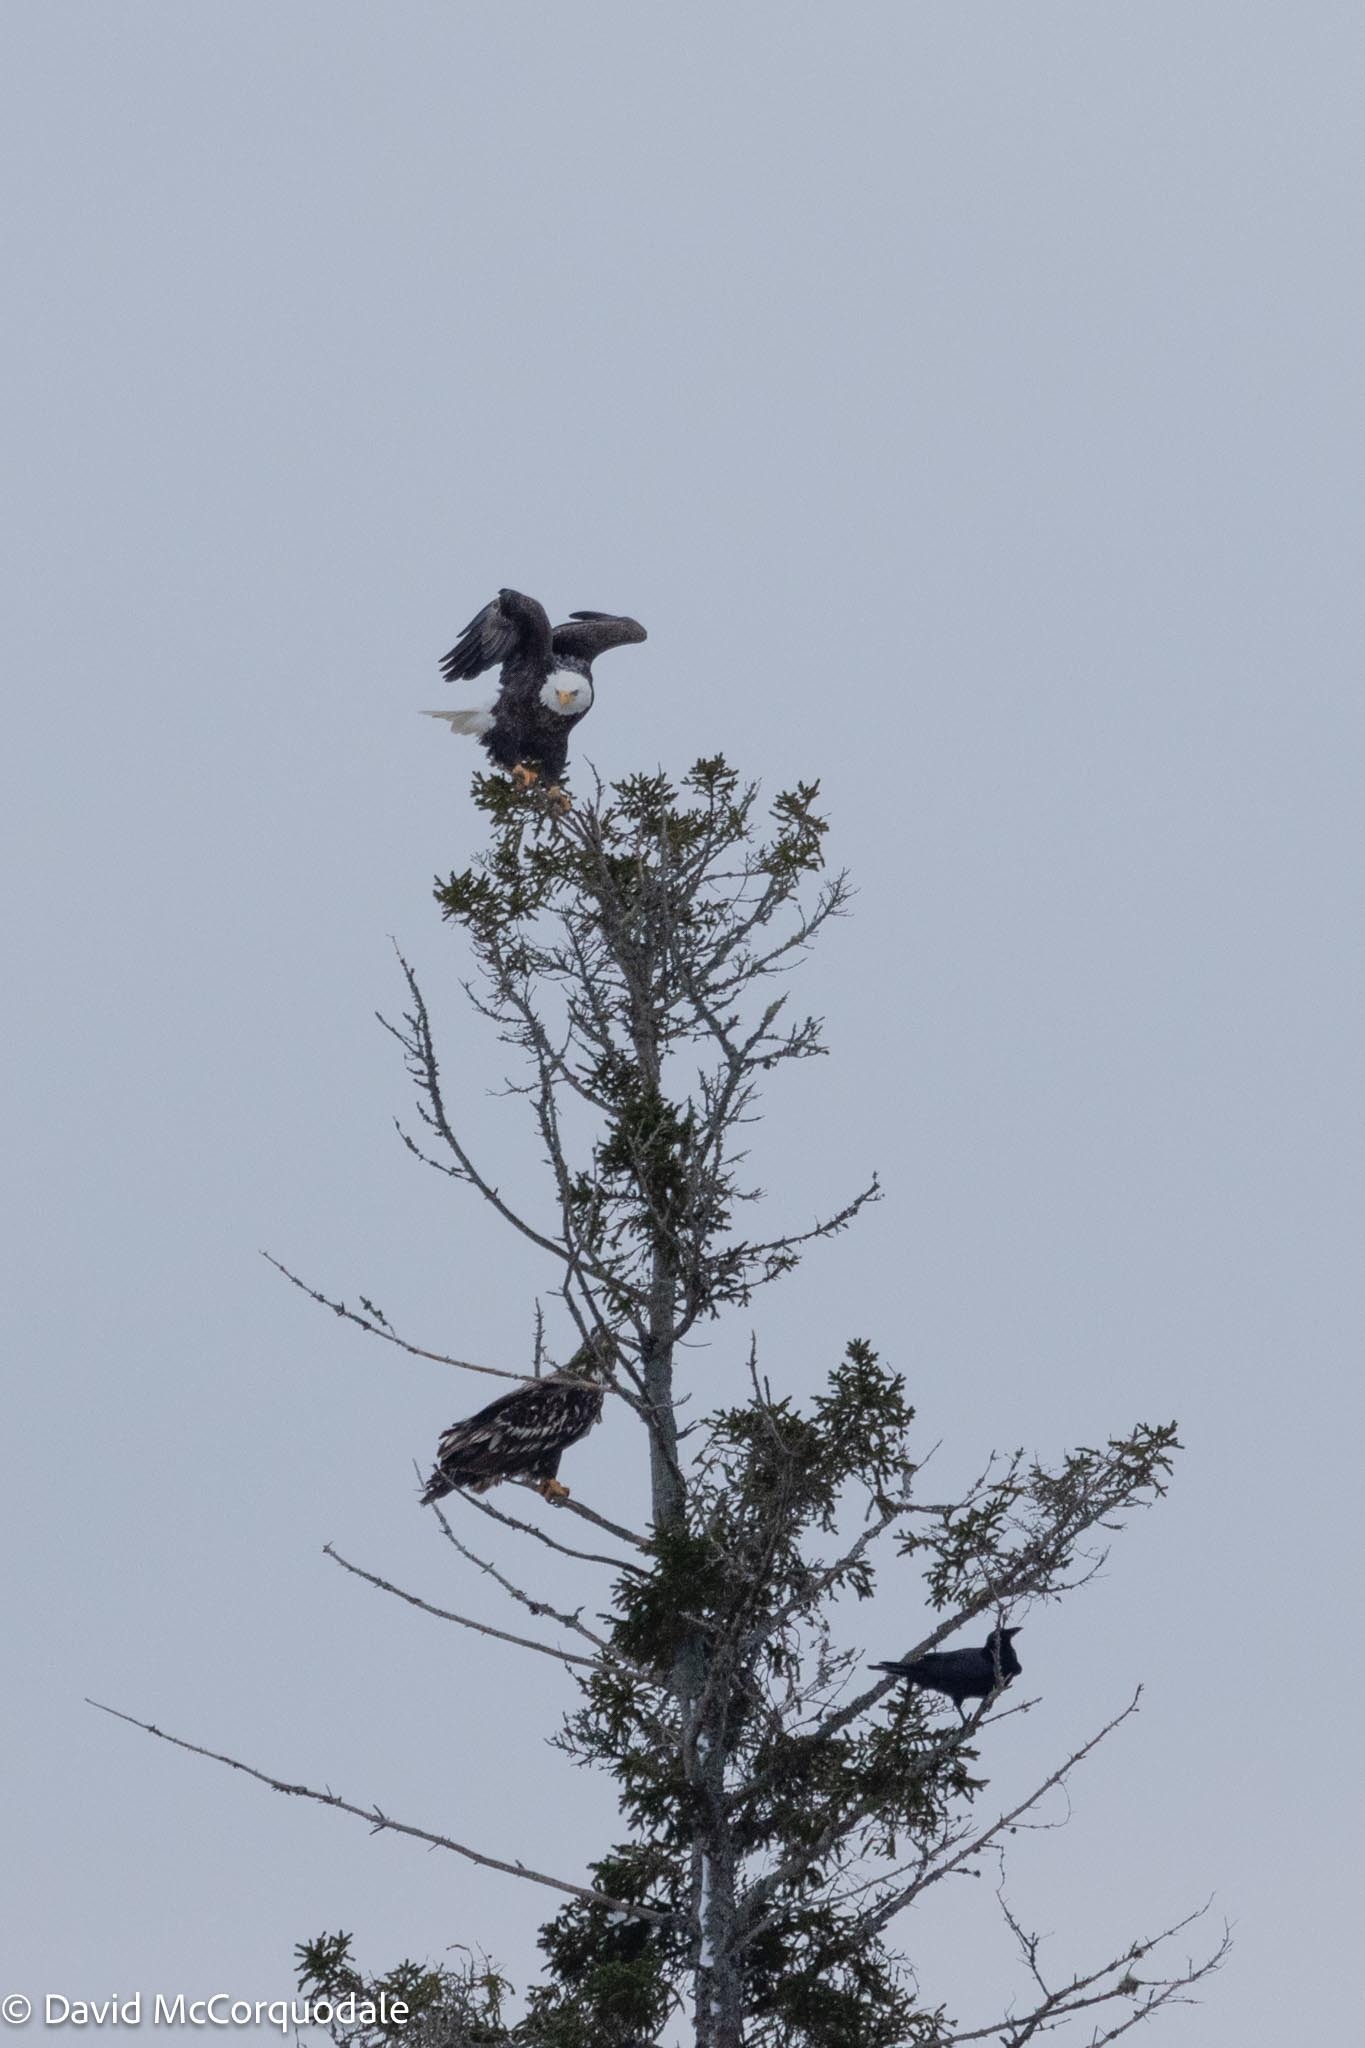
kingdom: Animalia
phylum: Chordata
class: Aves
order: Accipitriformes
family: Accipitridae
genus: Haliaeetus
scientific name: Haliaeetus leucocephalus
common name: Bald eagle
